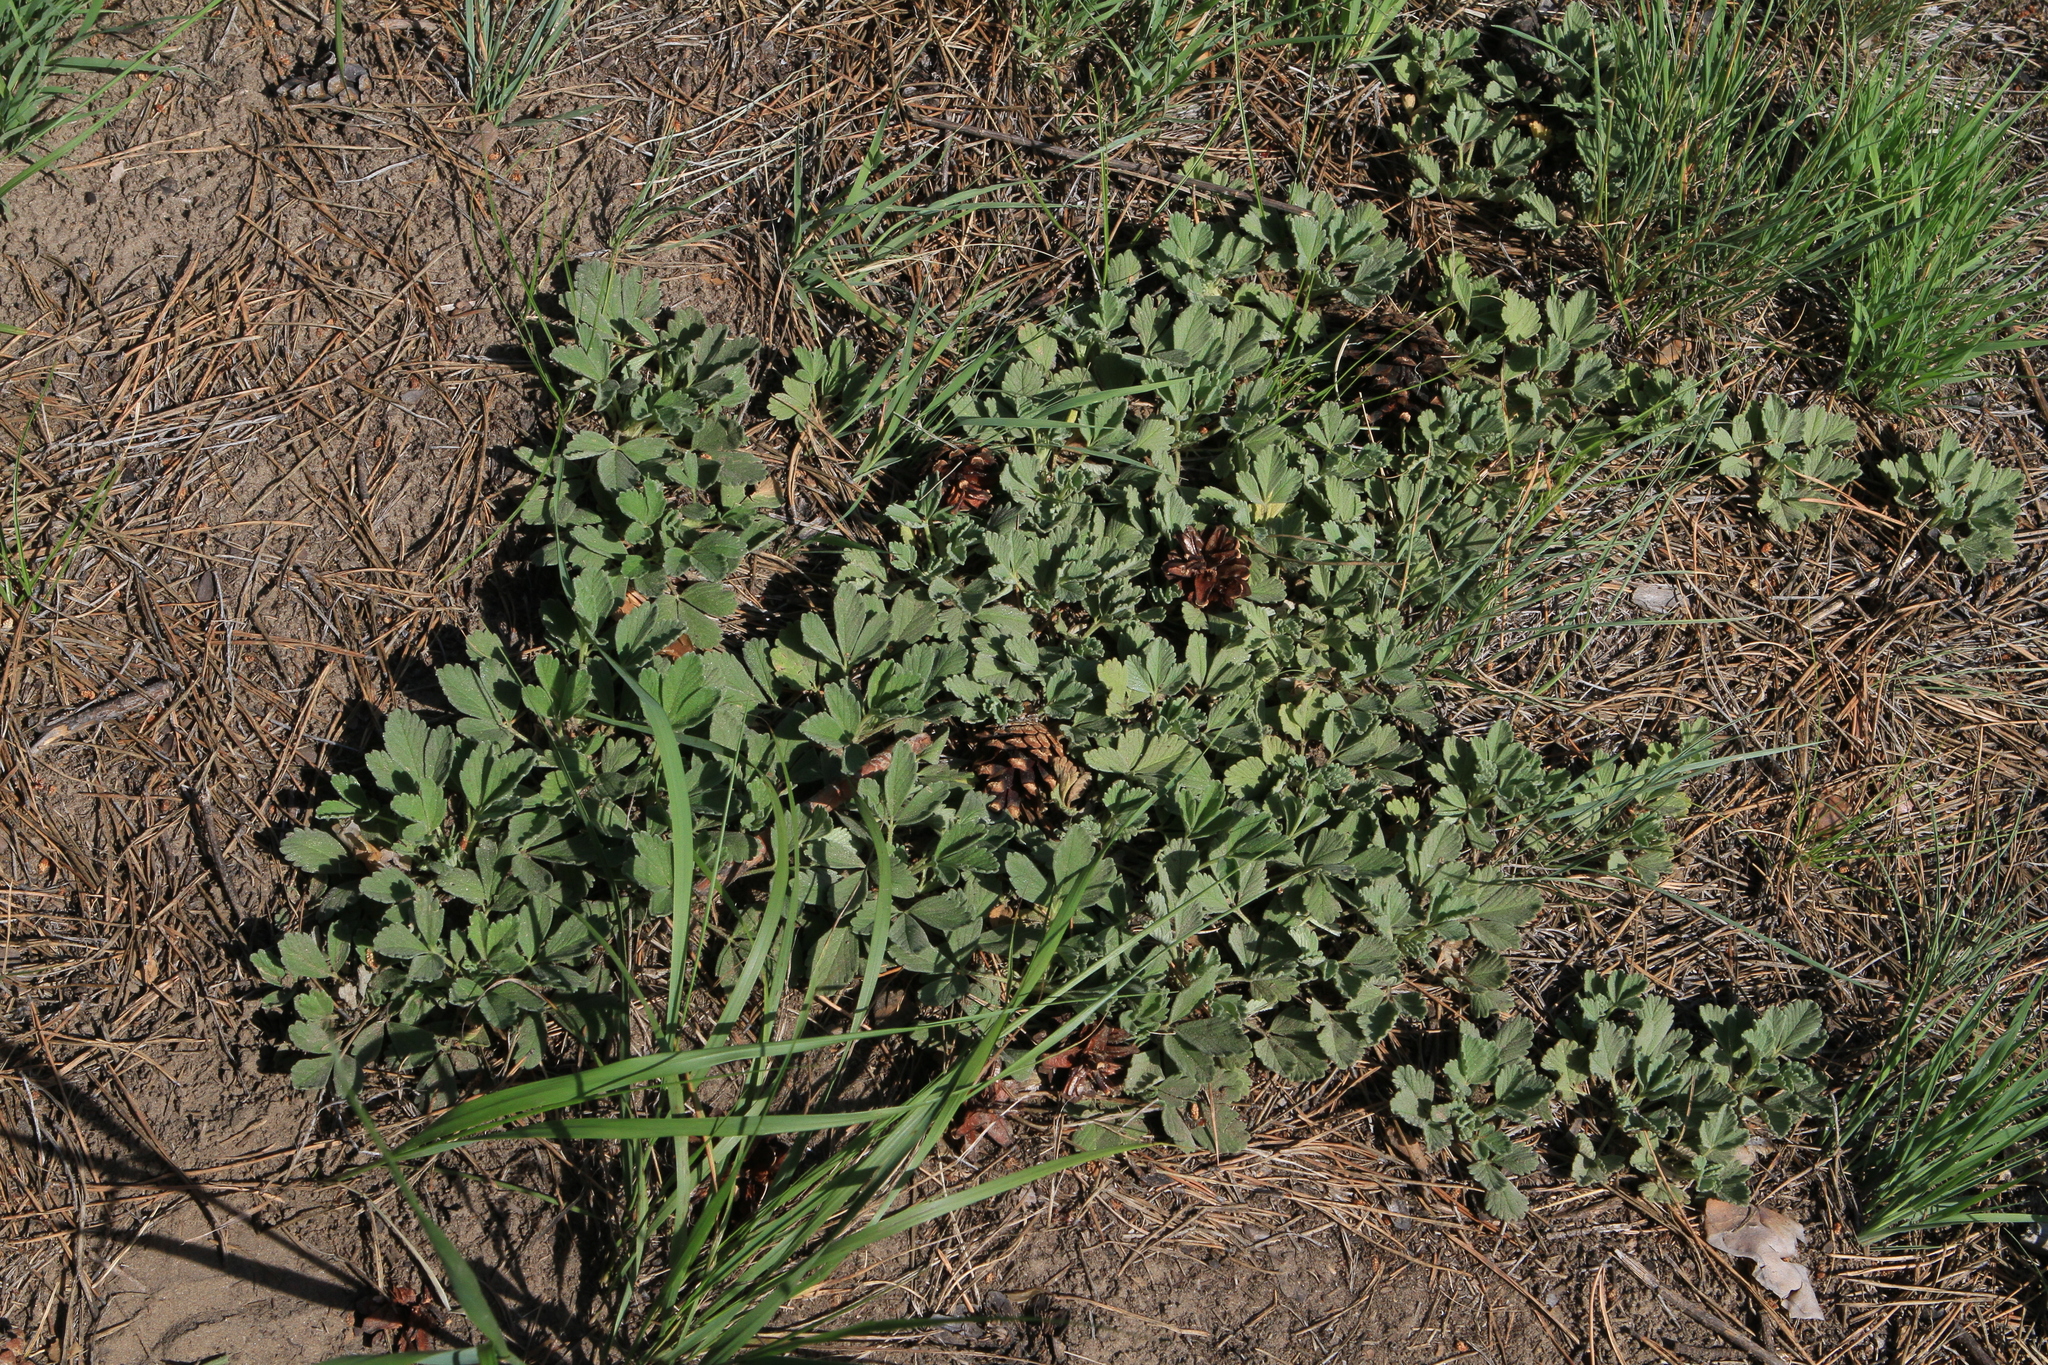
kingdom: Plantae
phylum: Tracheophyta
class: Magnoliopsida
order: Rosales
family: Rosaceae
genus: Potentilla
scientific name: Potentilla acaulis
